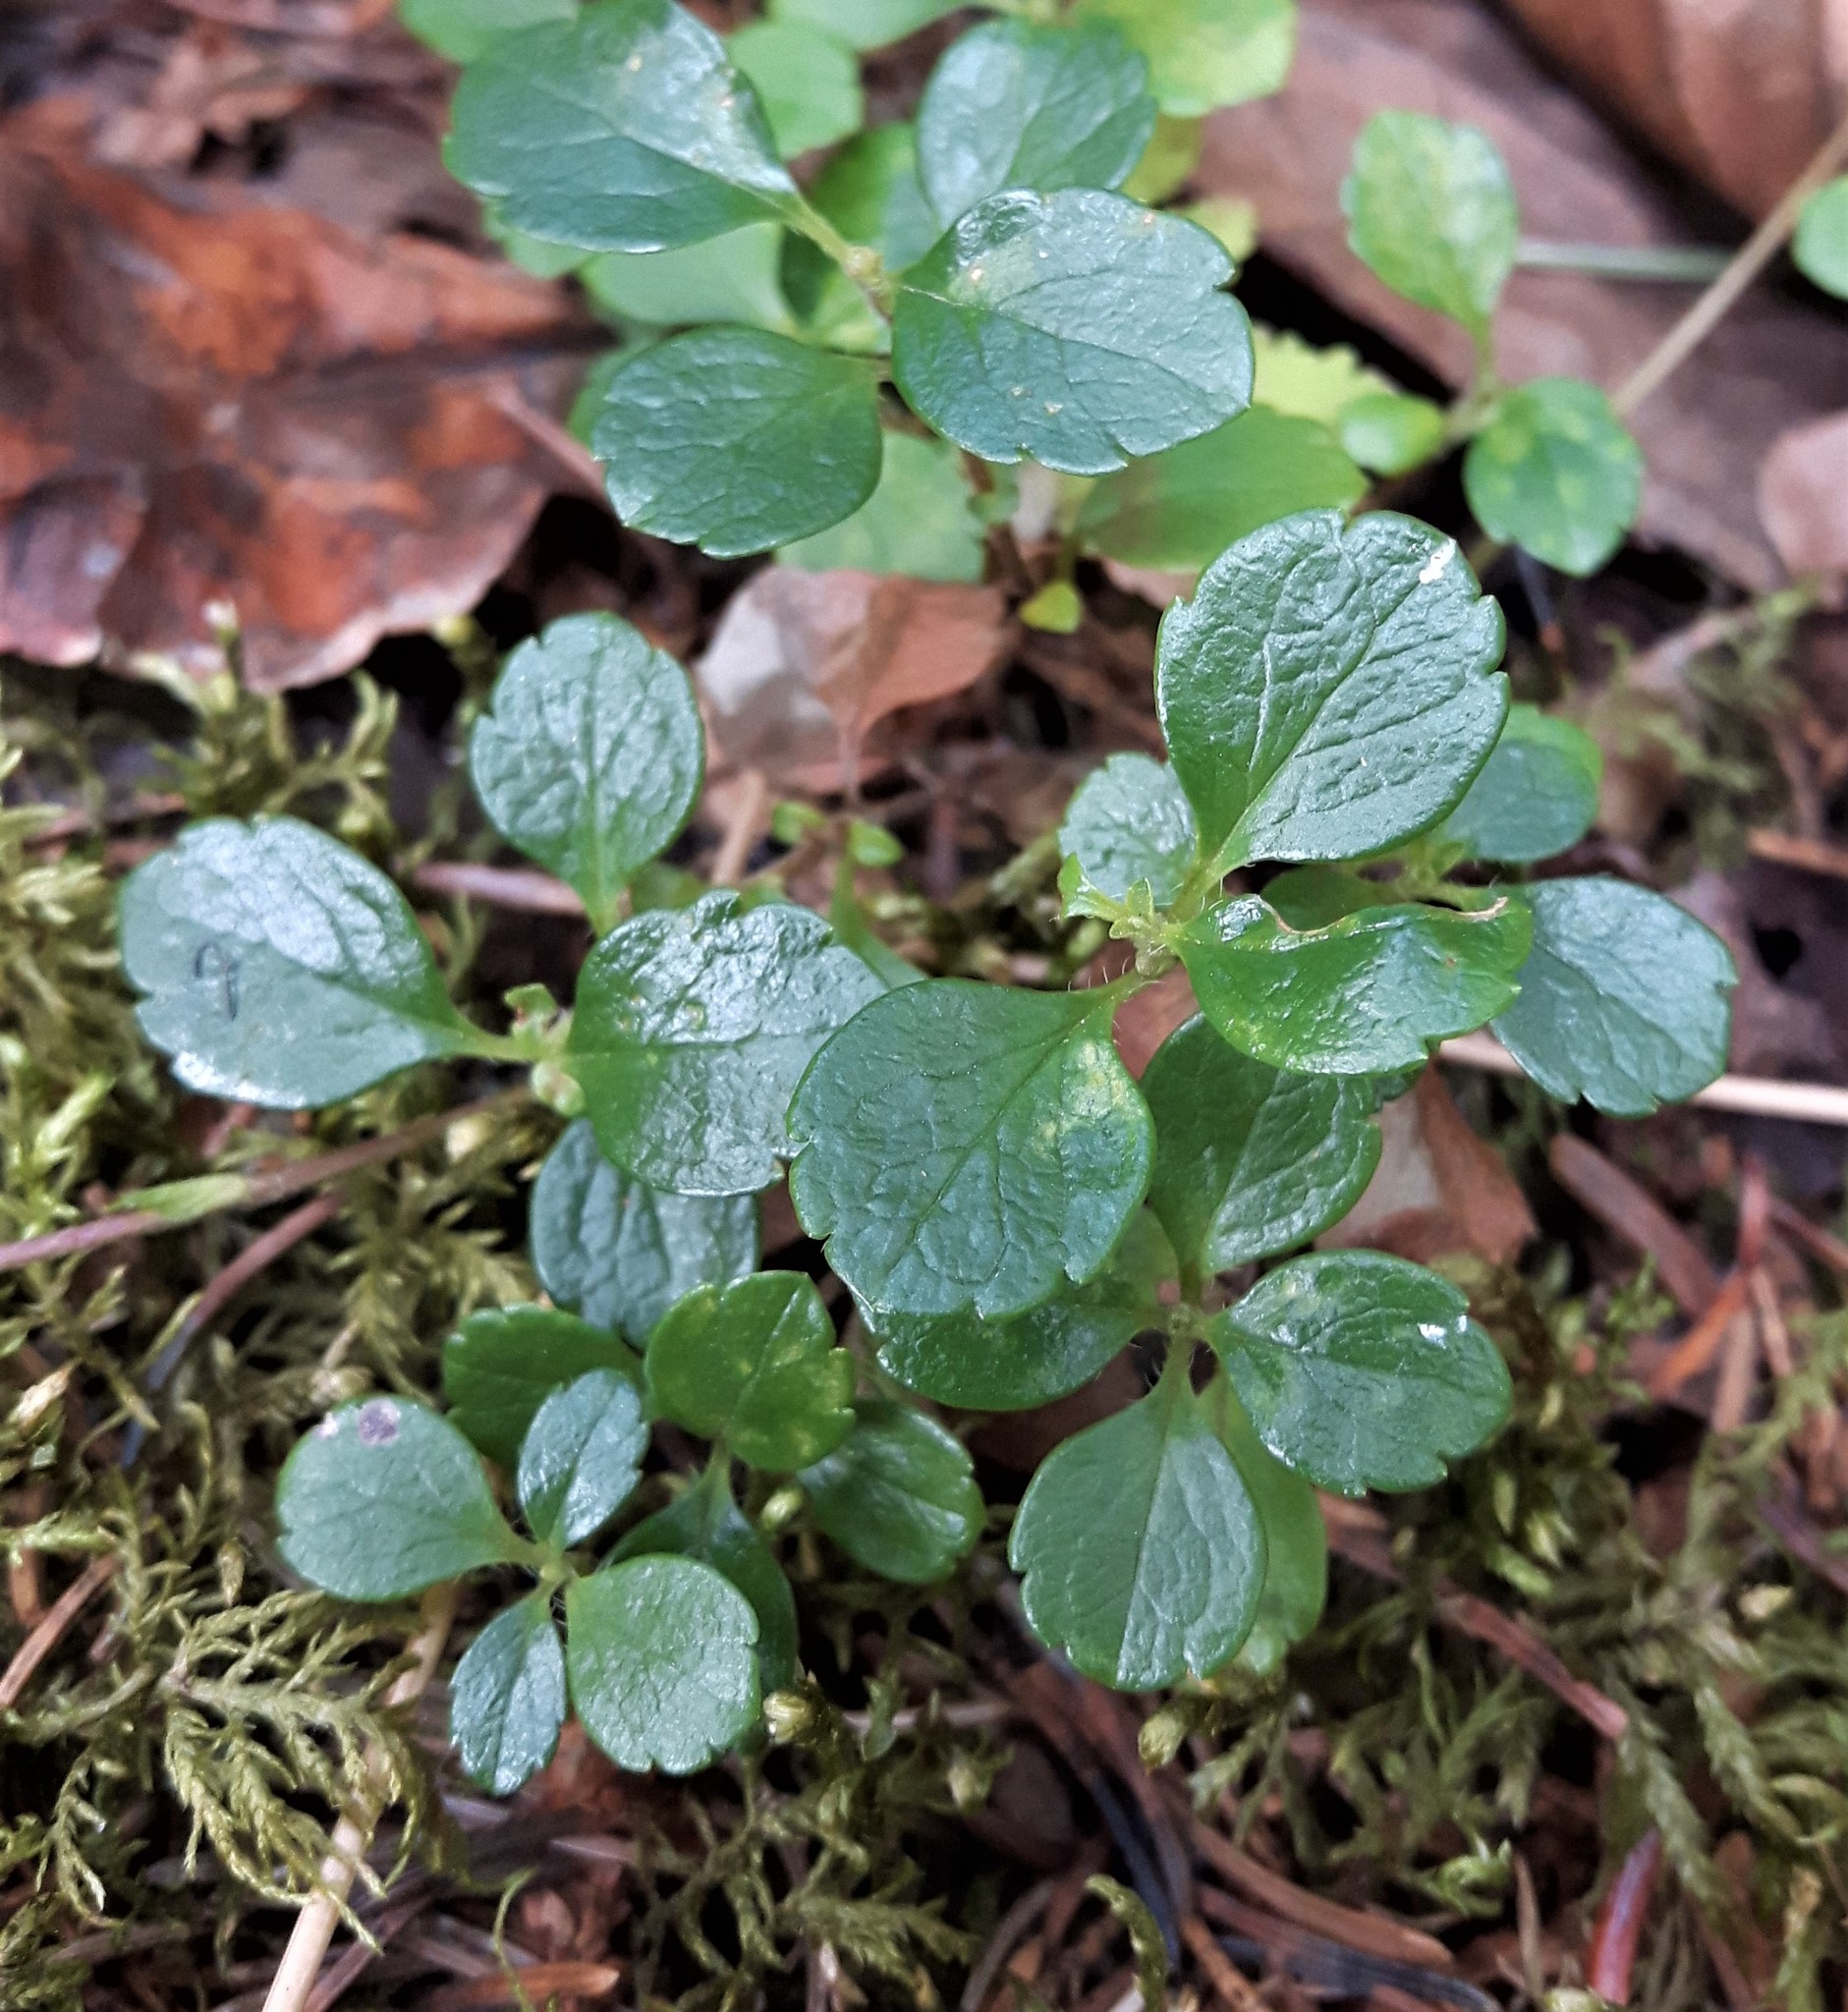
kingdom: Plantae
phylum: Tracheophyta
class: Magnoliopsida
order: Dipsacales
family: Caprifoliaceae
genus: Linnaea
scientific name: Linnaea borealis
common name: Twinflower
